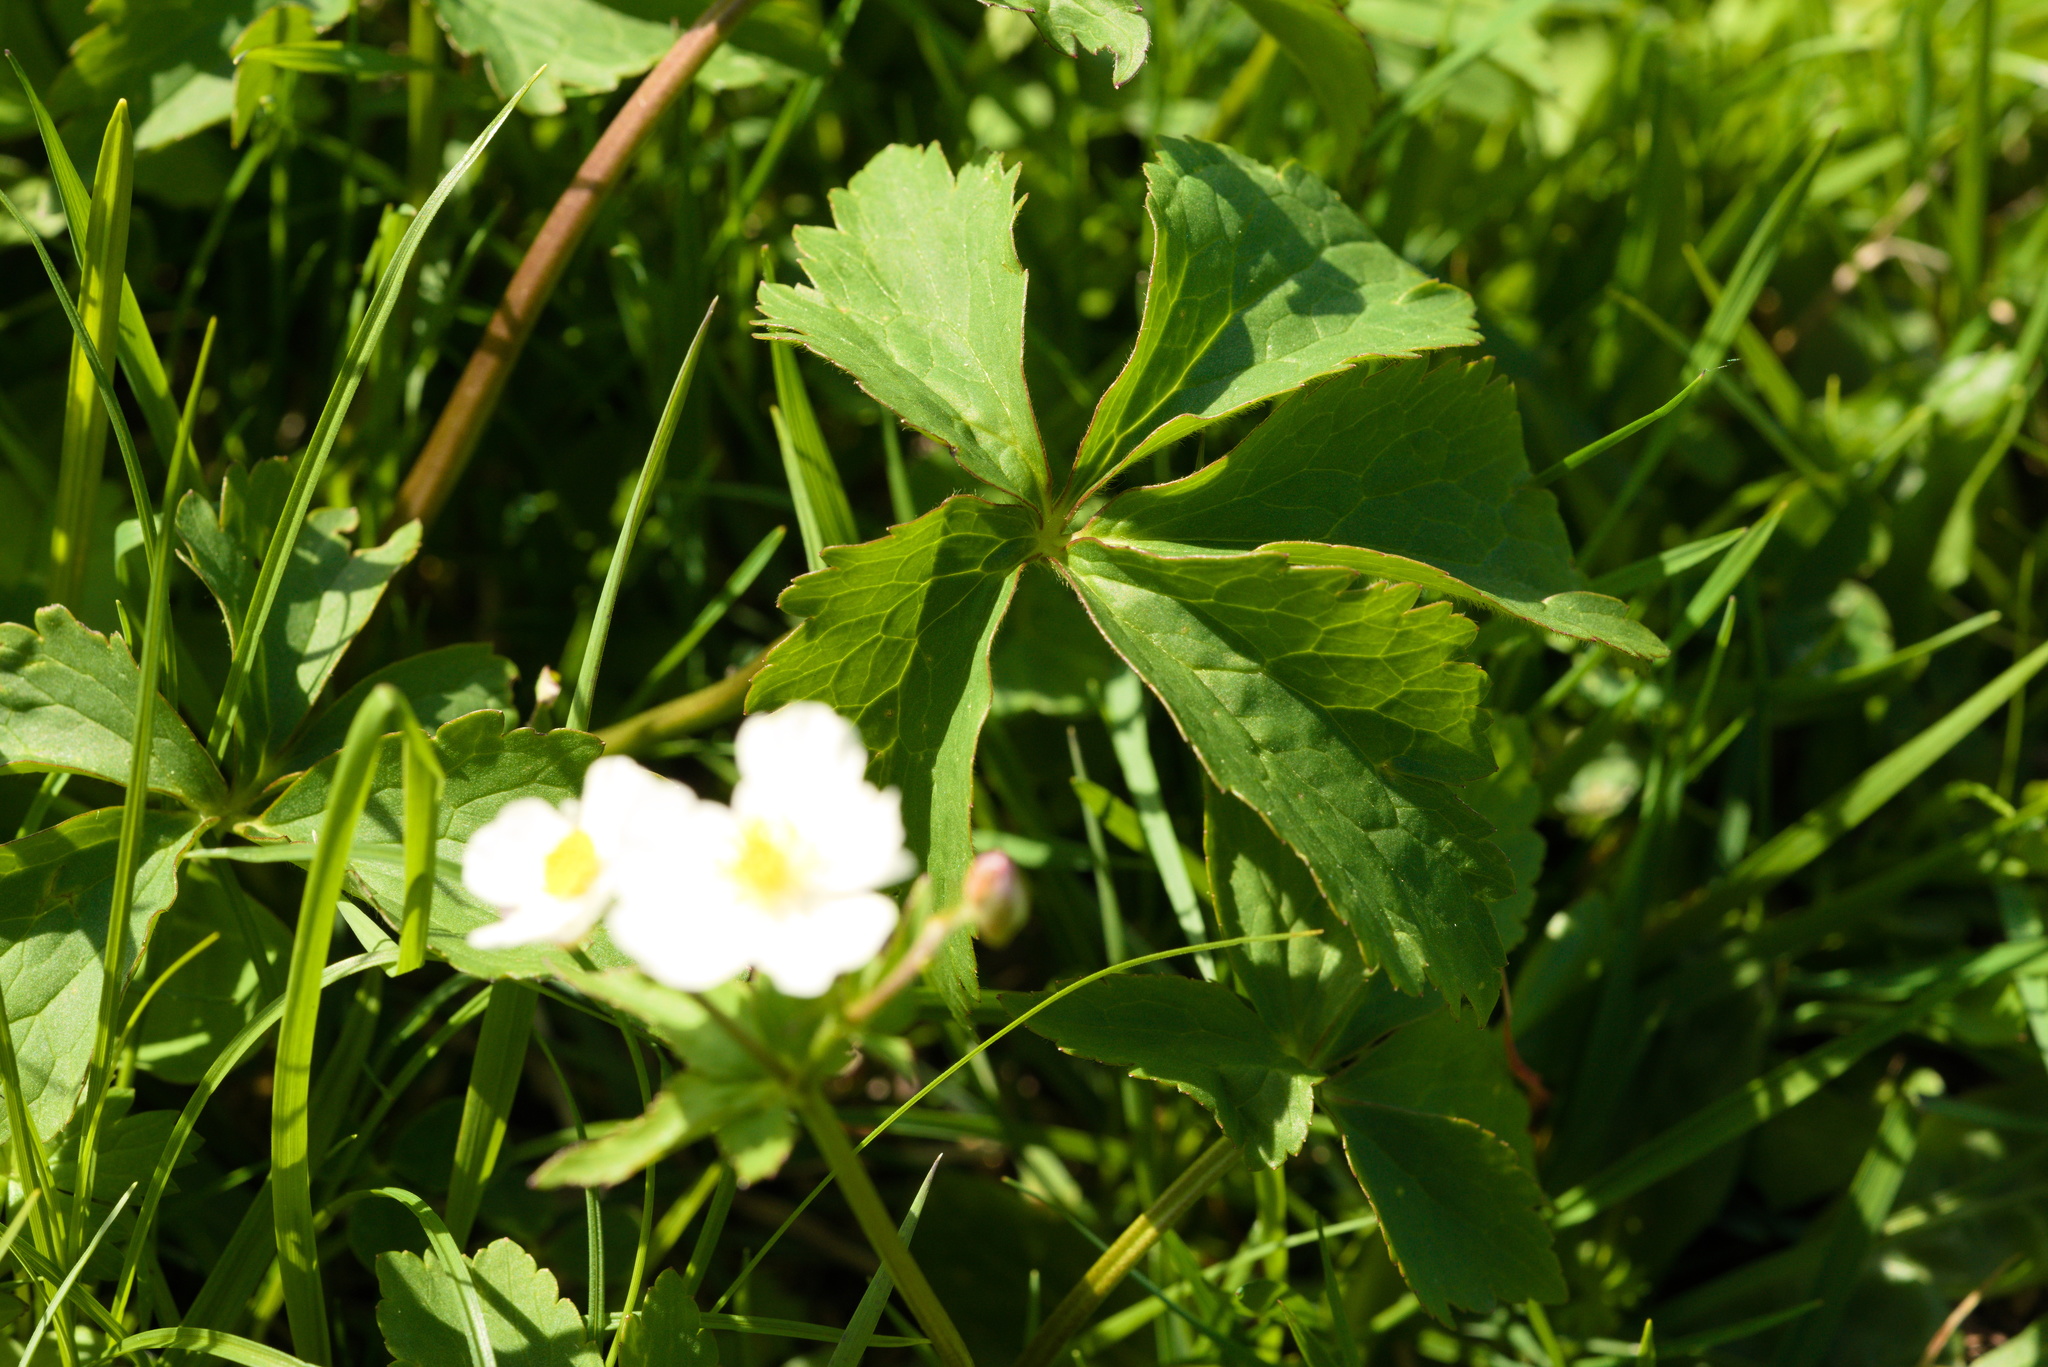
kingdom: Plantae
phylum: Tracheophyta
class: Magnoliopsida
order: Ranunculales
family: Ranunculaceae
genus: Ranunculus
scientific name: Ranunculus aconitifolius
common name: Aconite-leaved buttercup
